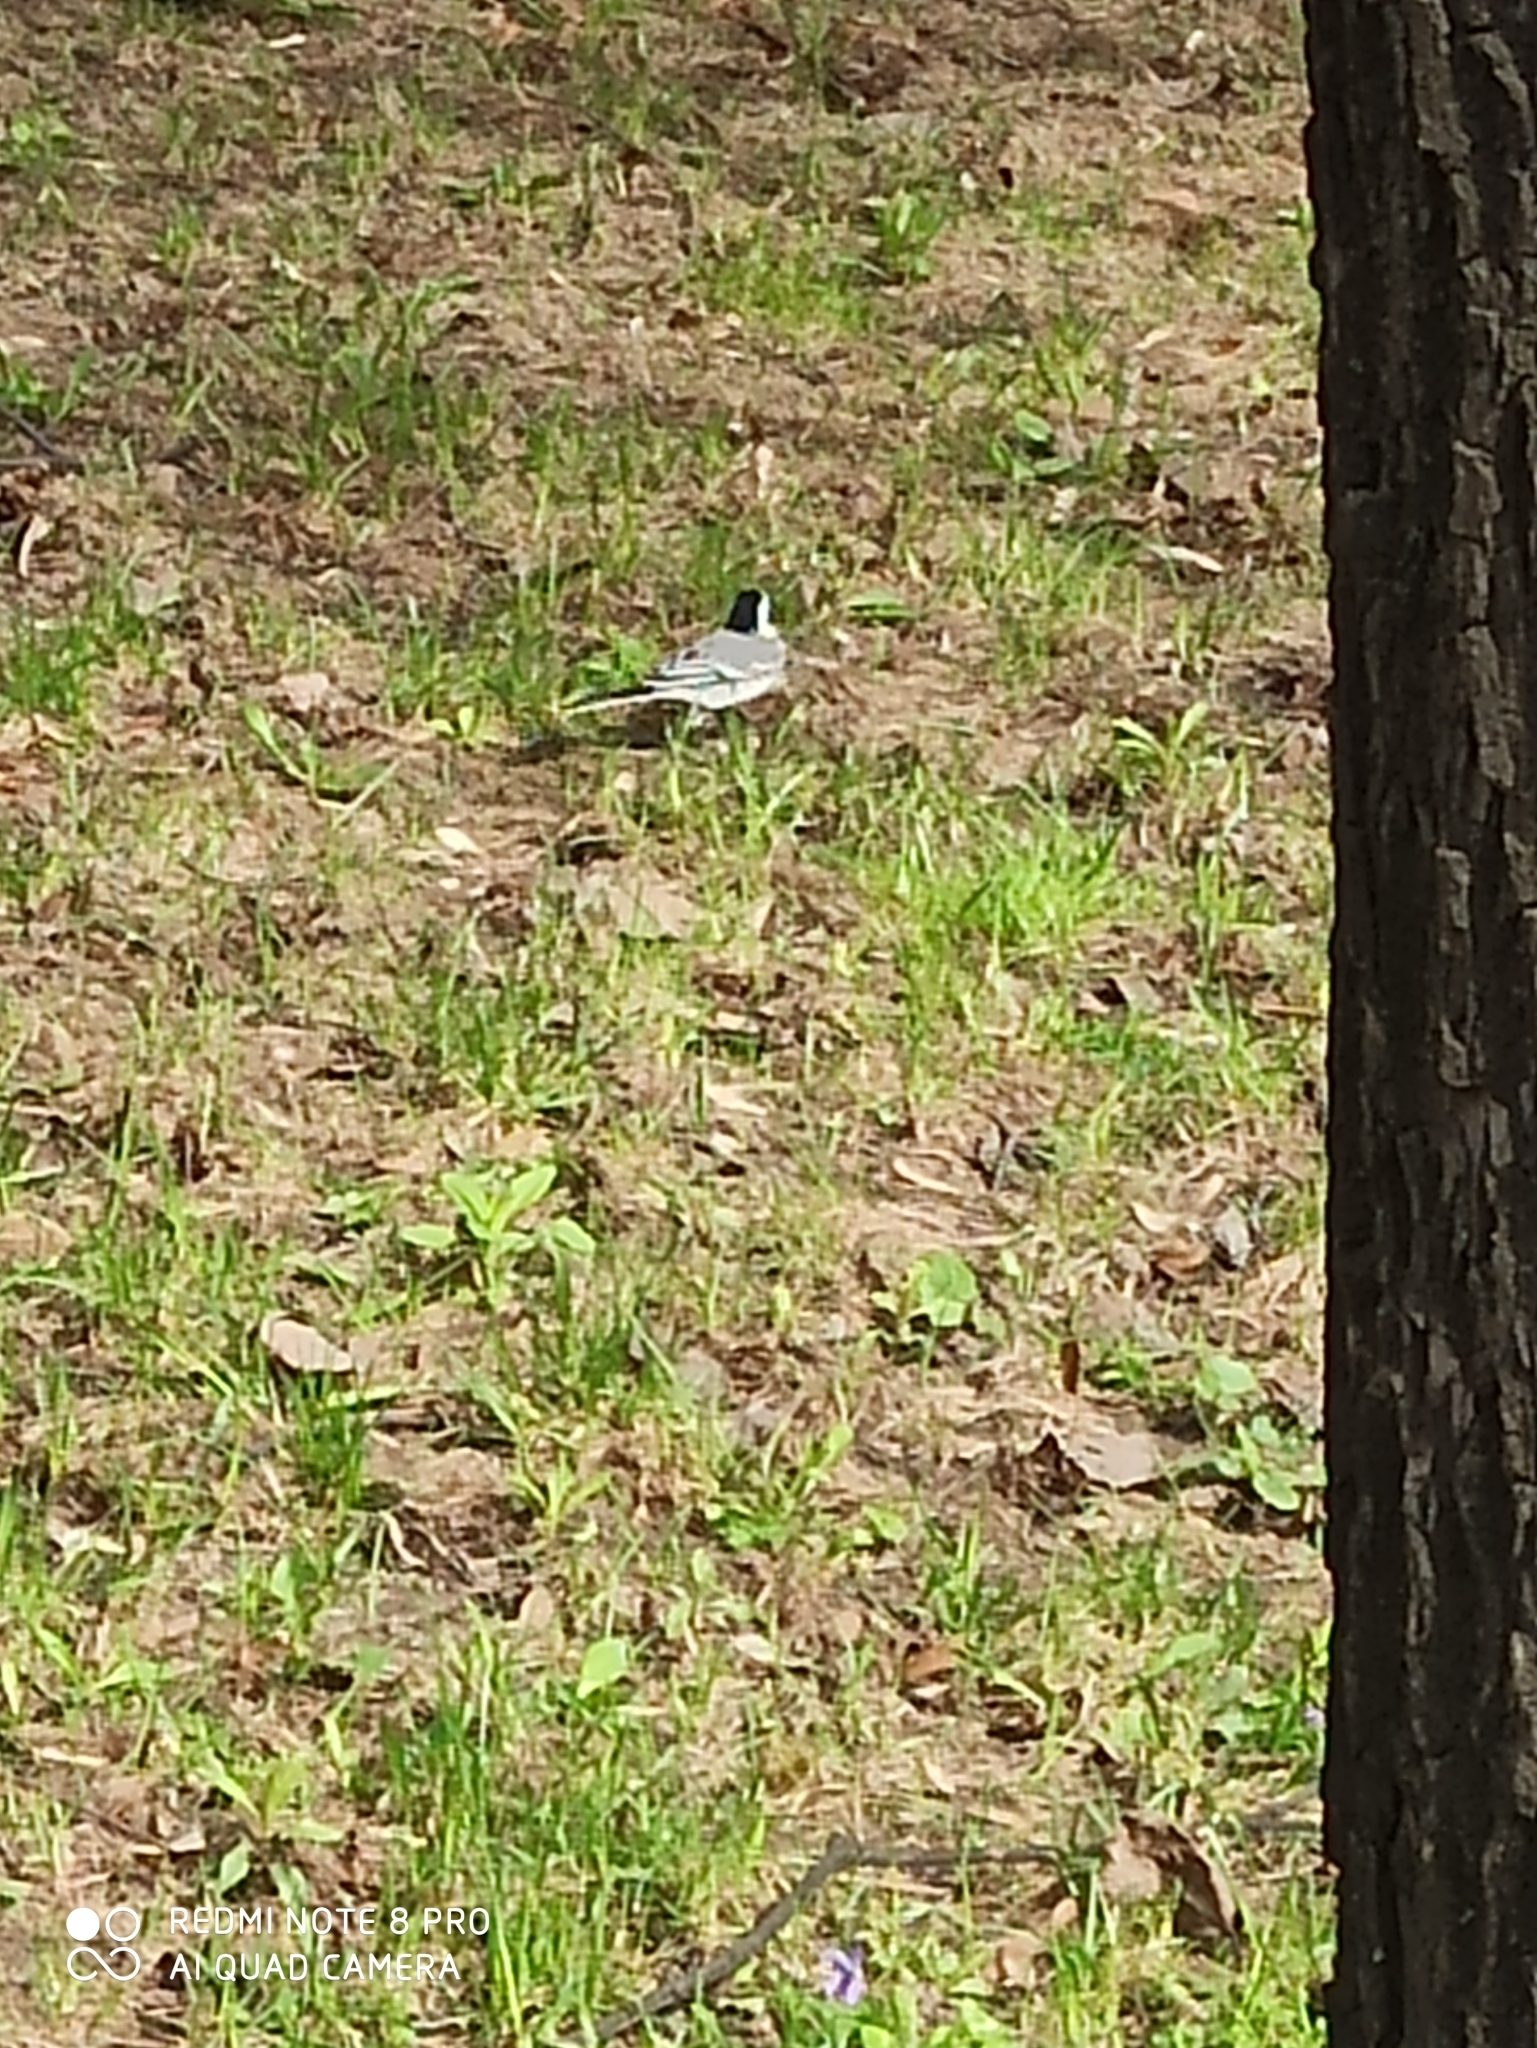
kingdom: Animalia
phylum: Chordata
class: Aves
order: Passeriformes
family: Motacillidae
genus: Motacilla
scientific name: Motacilla alba
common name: White wagtail
